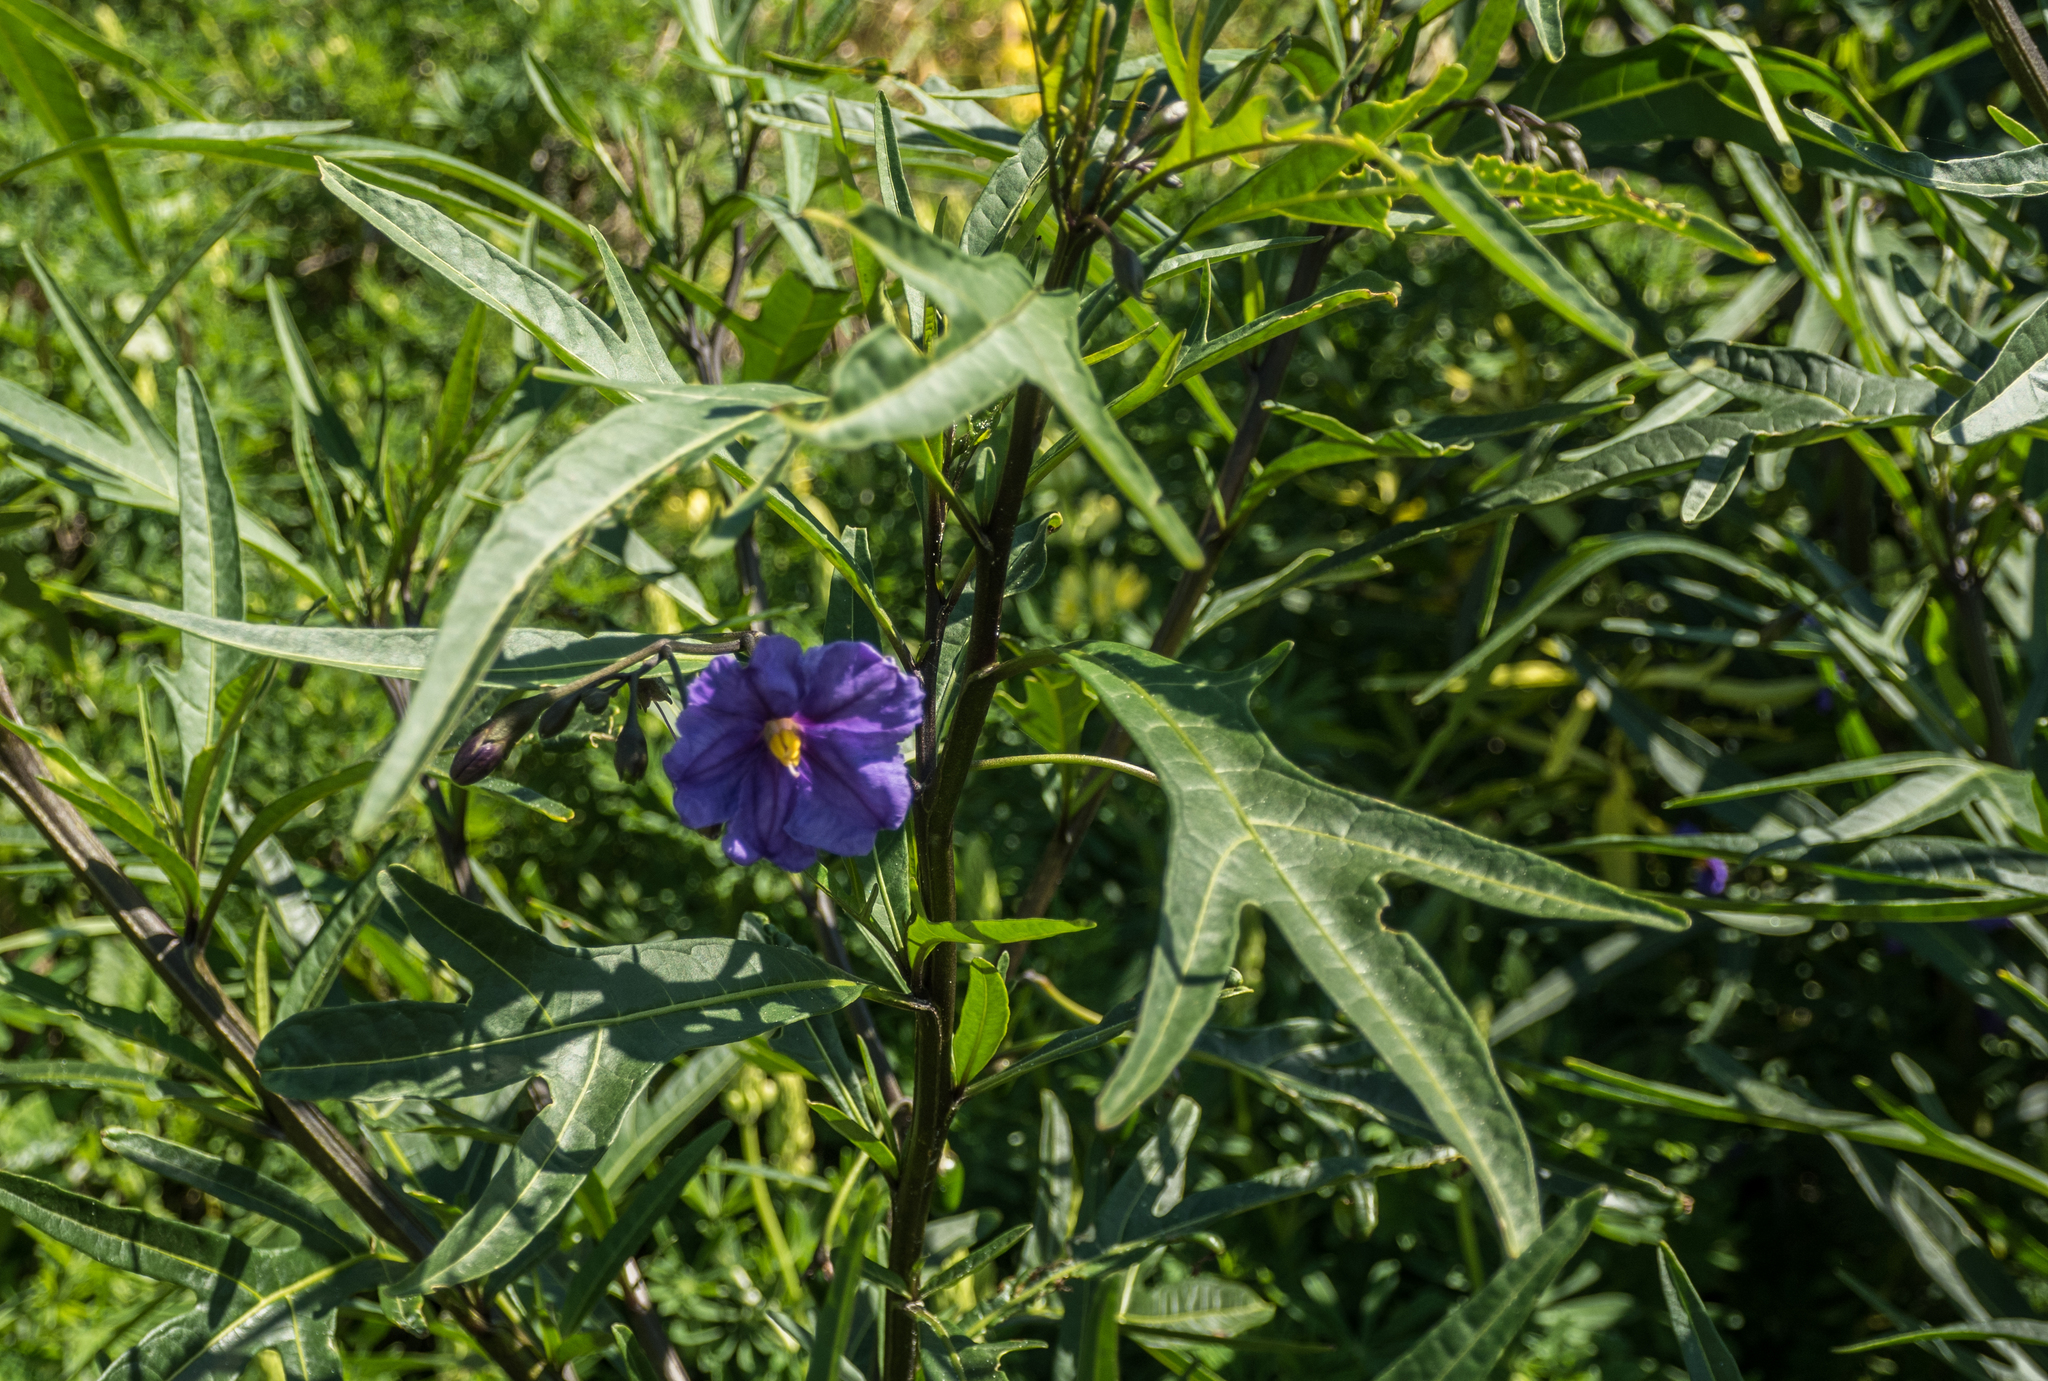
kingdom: Plantae
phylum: Tracheophyta
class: Magnoliopsida
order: Solanales
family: Solanaceae
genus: Solanum
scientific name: Solanum laciniatum
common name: Kangaroo-apple
